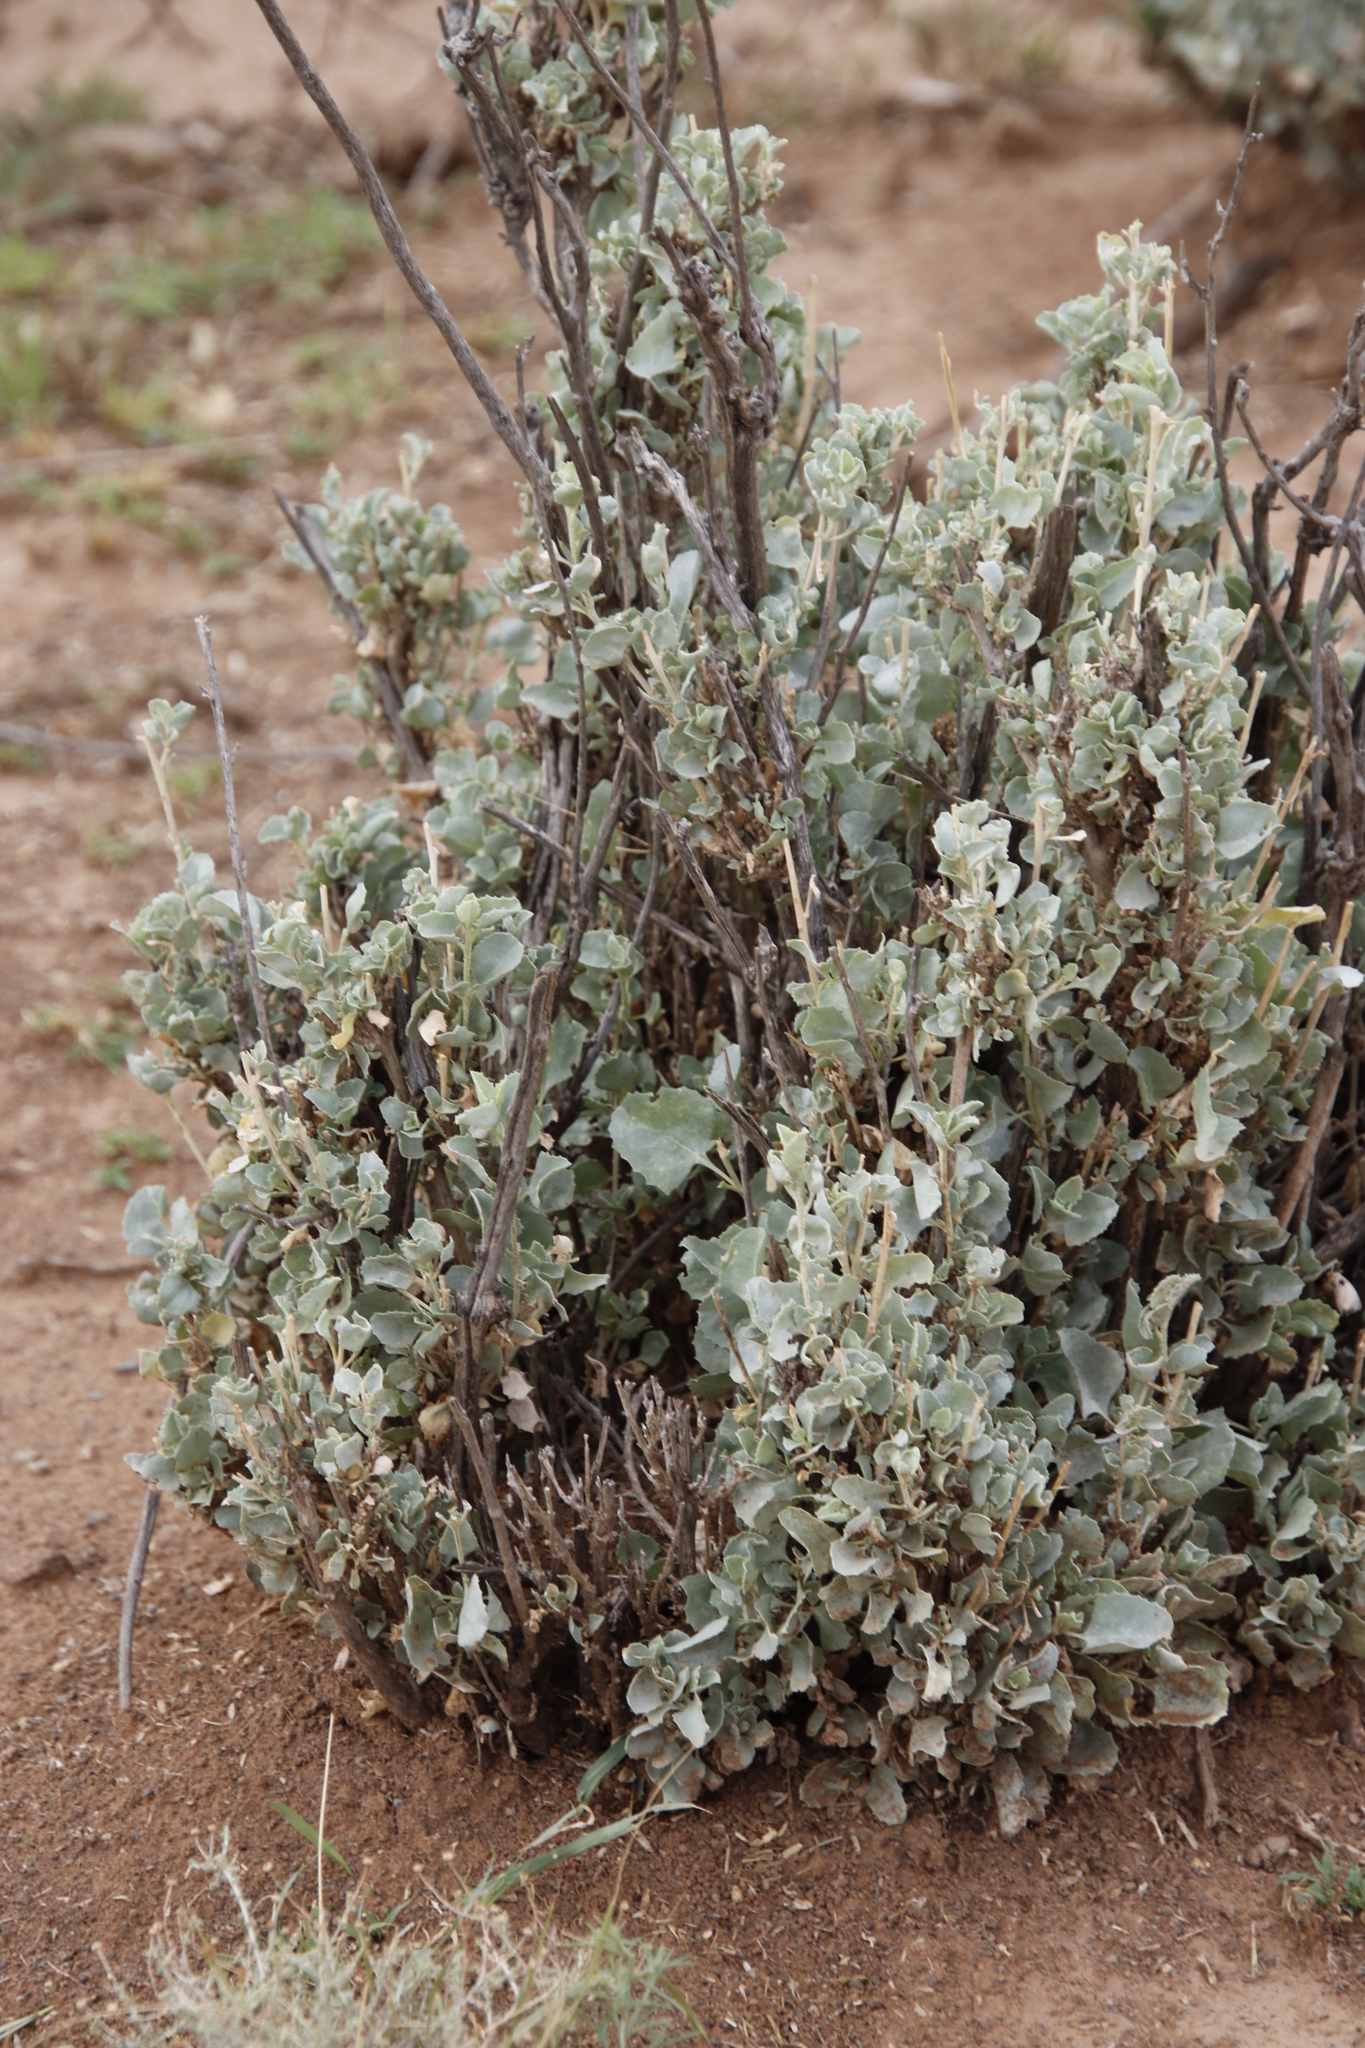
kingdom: Plantae
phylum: Tracheophyta
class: Magnoliopsida
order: Caryophyllales
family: Amaranthaceae
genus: Atriplex
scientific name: Atriplex nummularia
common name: Bluegreen saltbush
